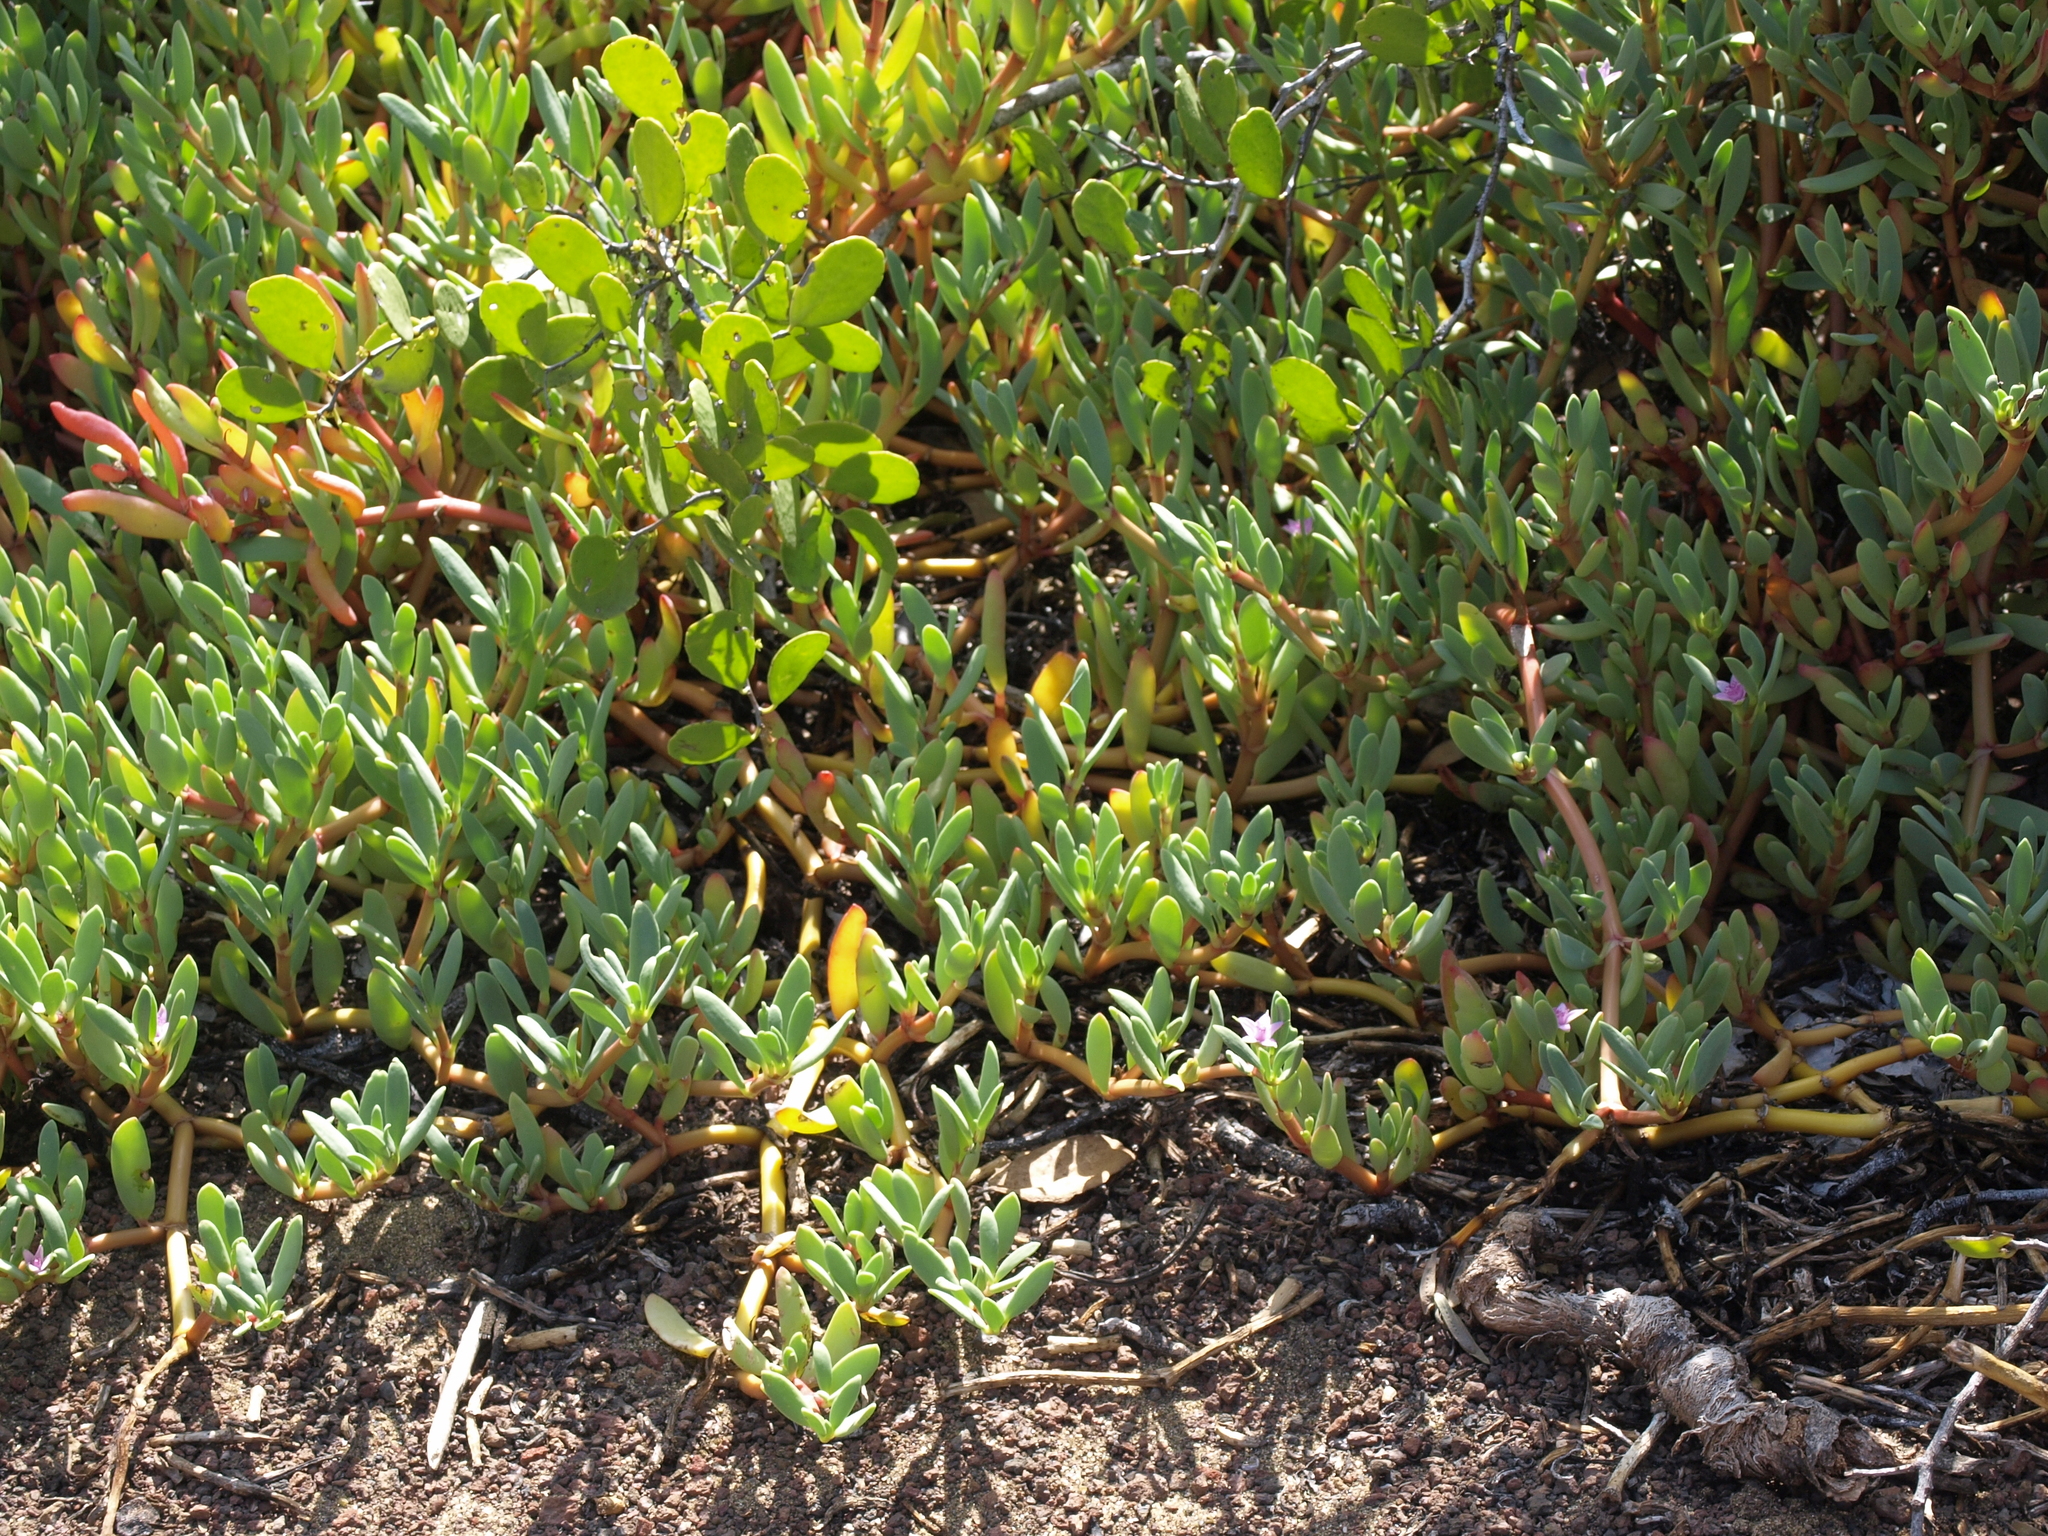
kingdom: Plantae
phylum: Tracheophyta
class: Magnoliopsida
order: Caryophyllales
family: Aizoaceae
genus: Sesuvium
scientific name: Sesuvium portulacastrum
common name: Sea-purslane
